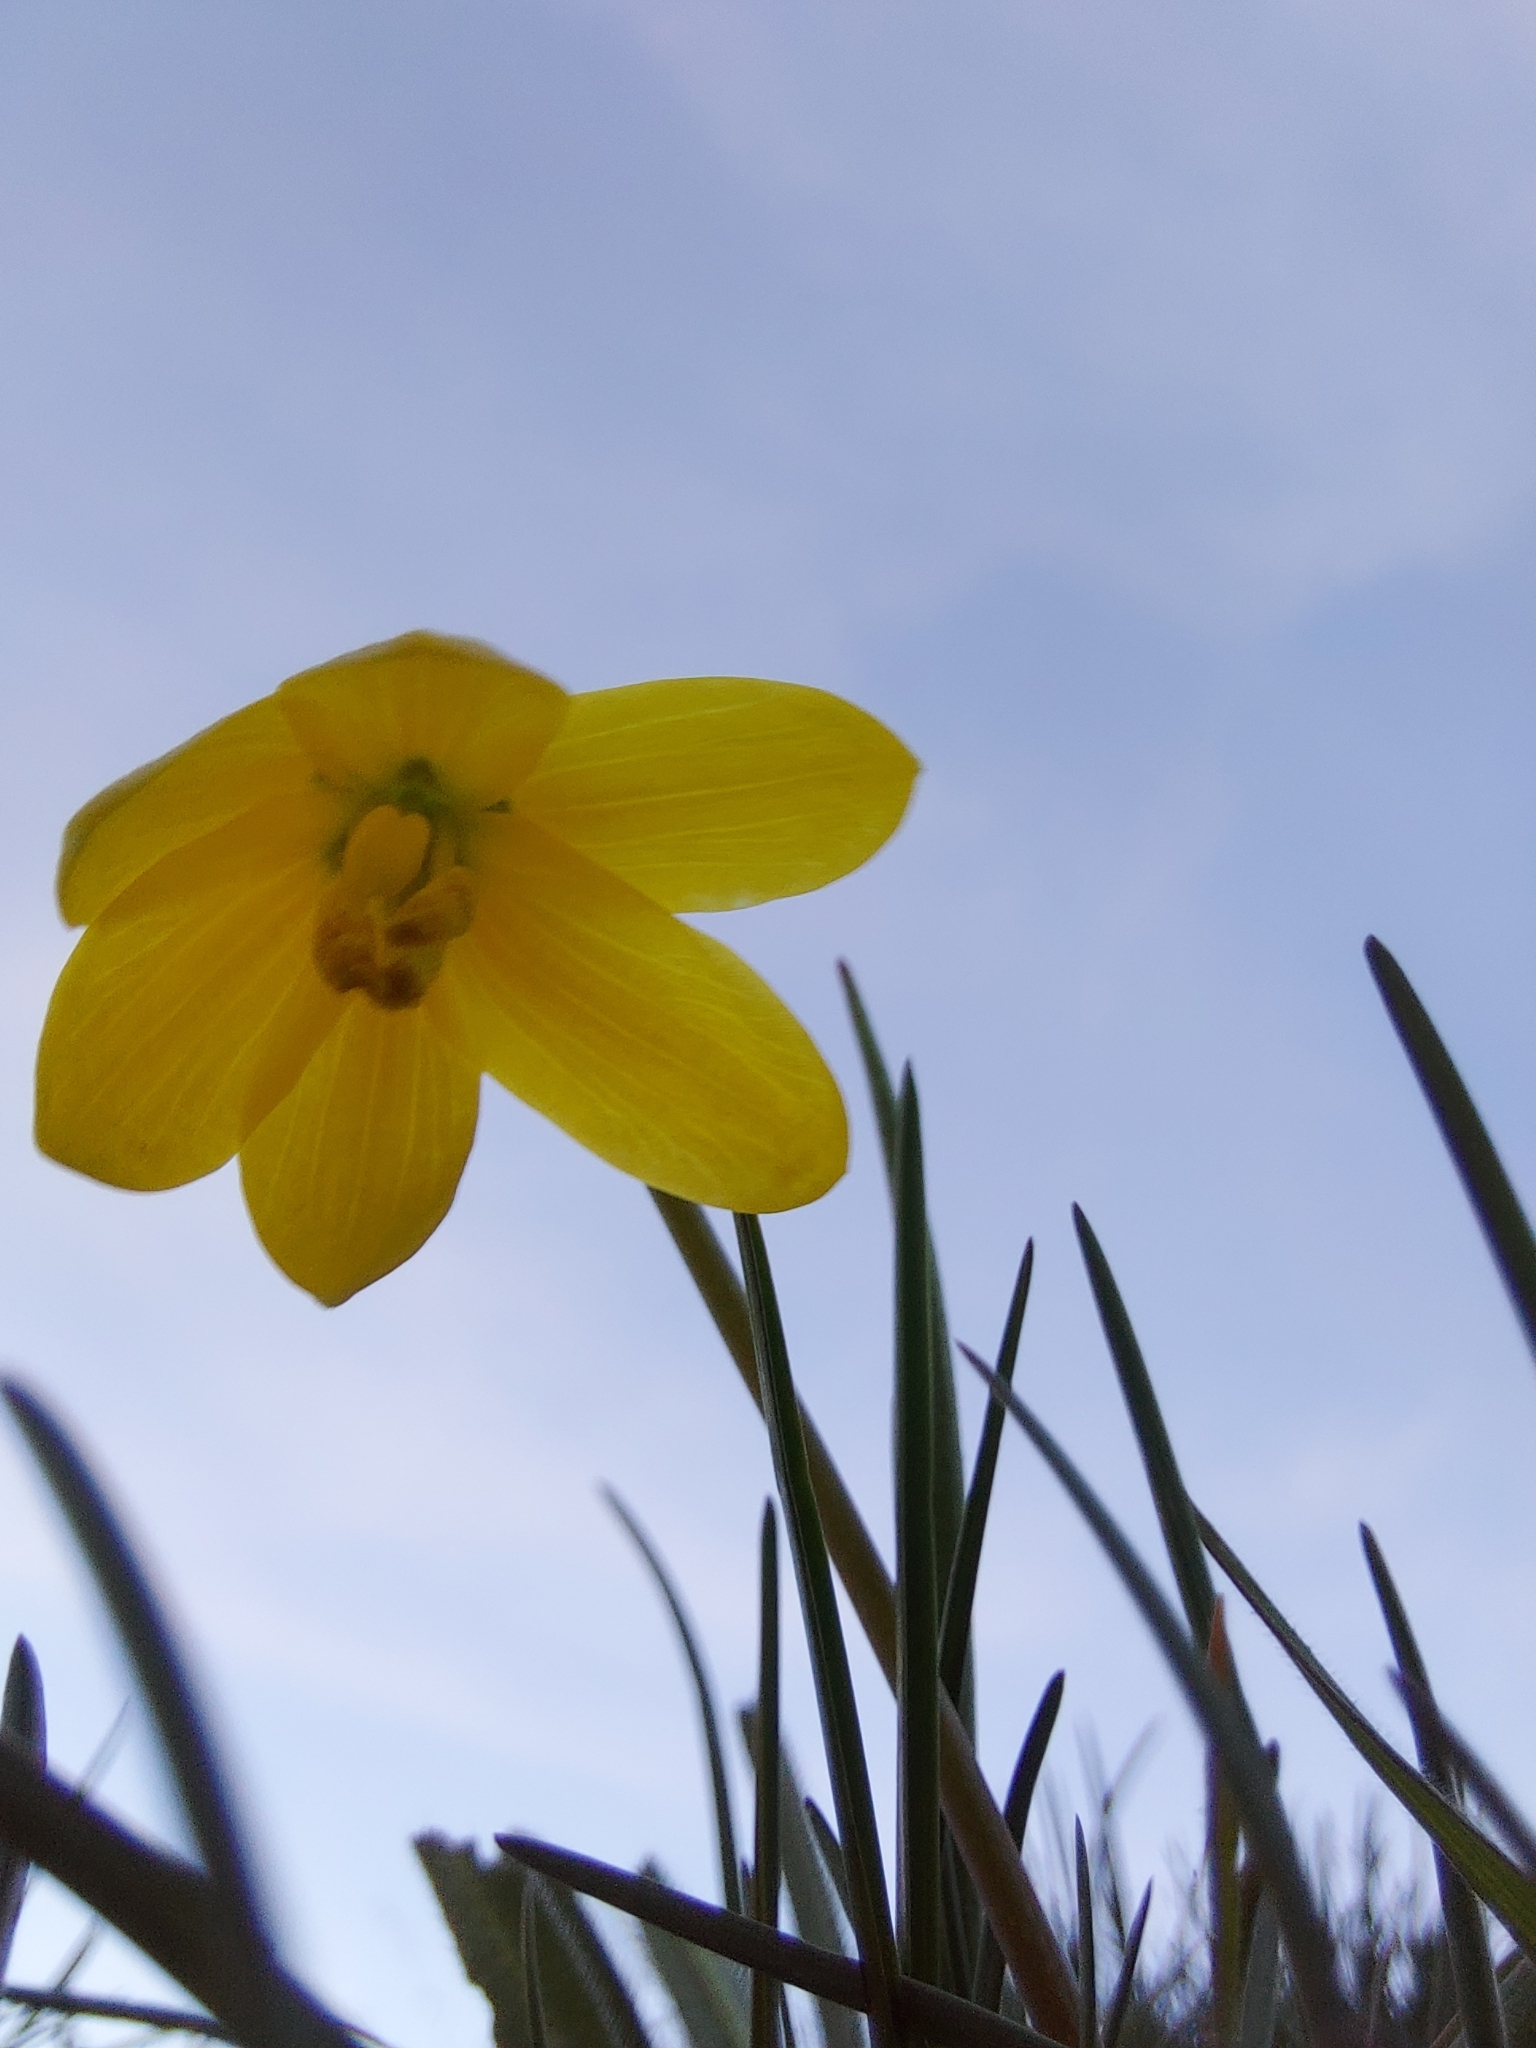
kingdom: Plantae
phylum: Tracheophyta
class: Liliopsida
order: Liliales
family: Liliaceae
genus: Fritillaria
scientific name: Fritillaria pudica
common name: Yellow fritillary
